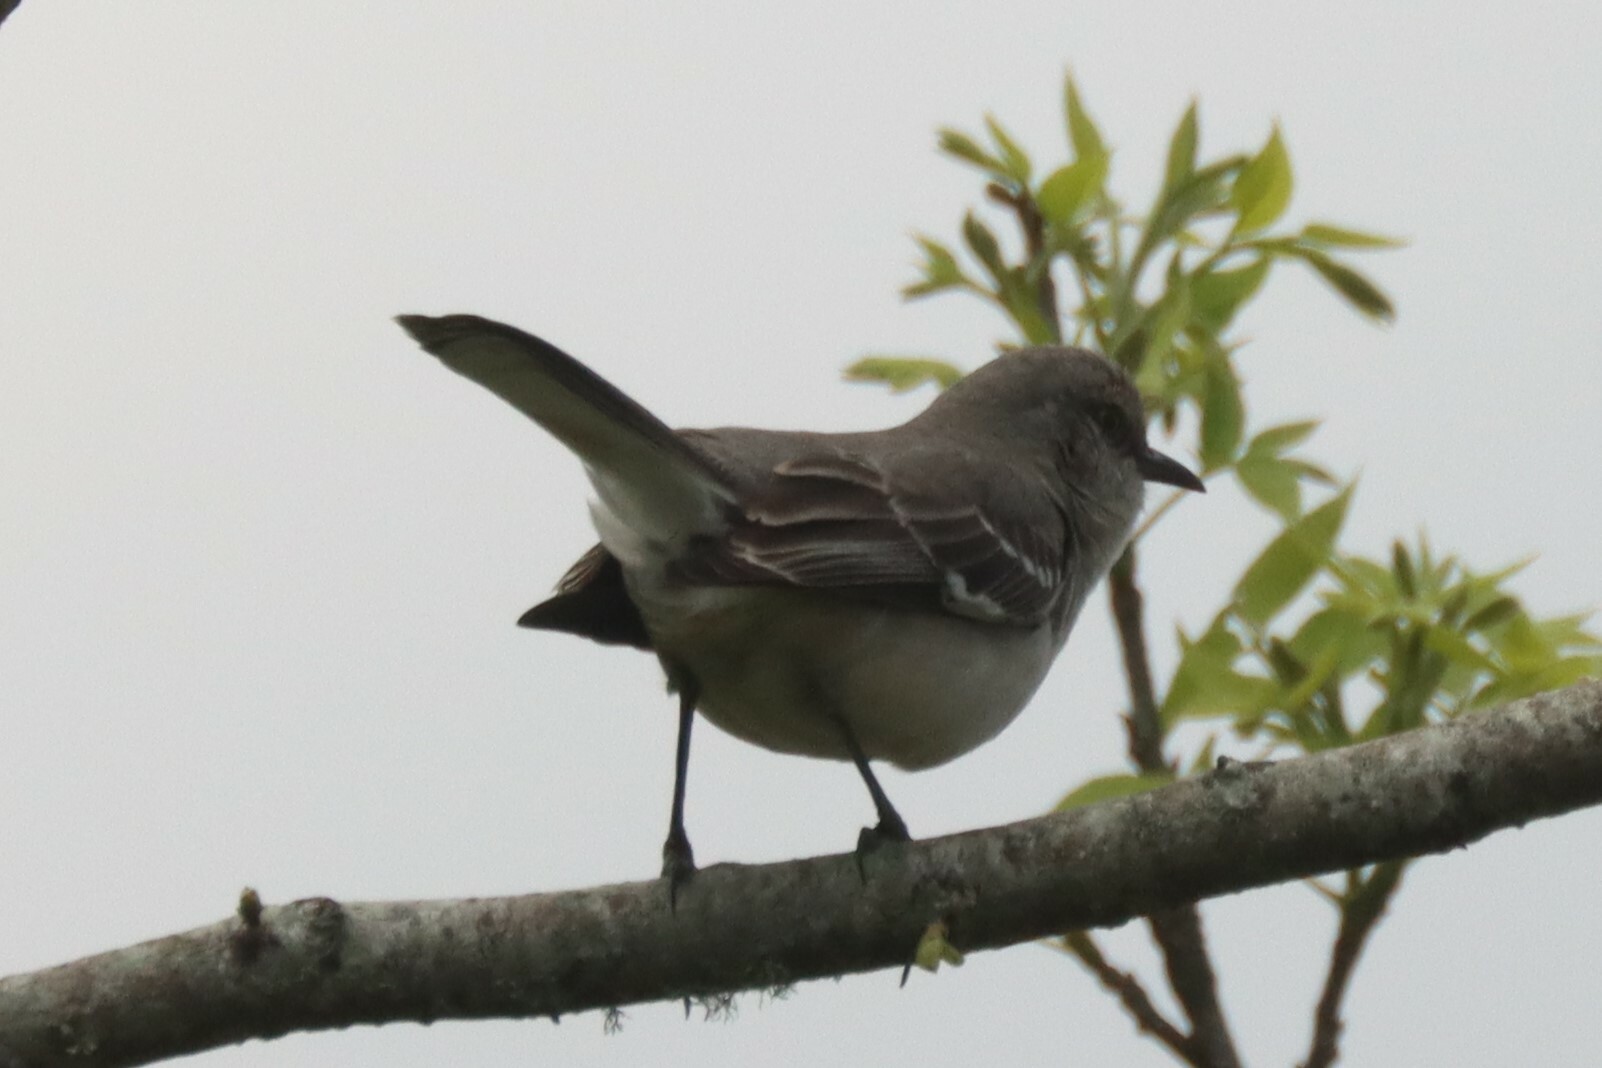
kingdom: Animalia
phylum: Chordata
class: Aves
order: Passeriformes
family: Mimidae
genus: Mimus
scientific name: Mimus polyglottos
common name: Northern mockingbird
